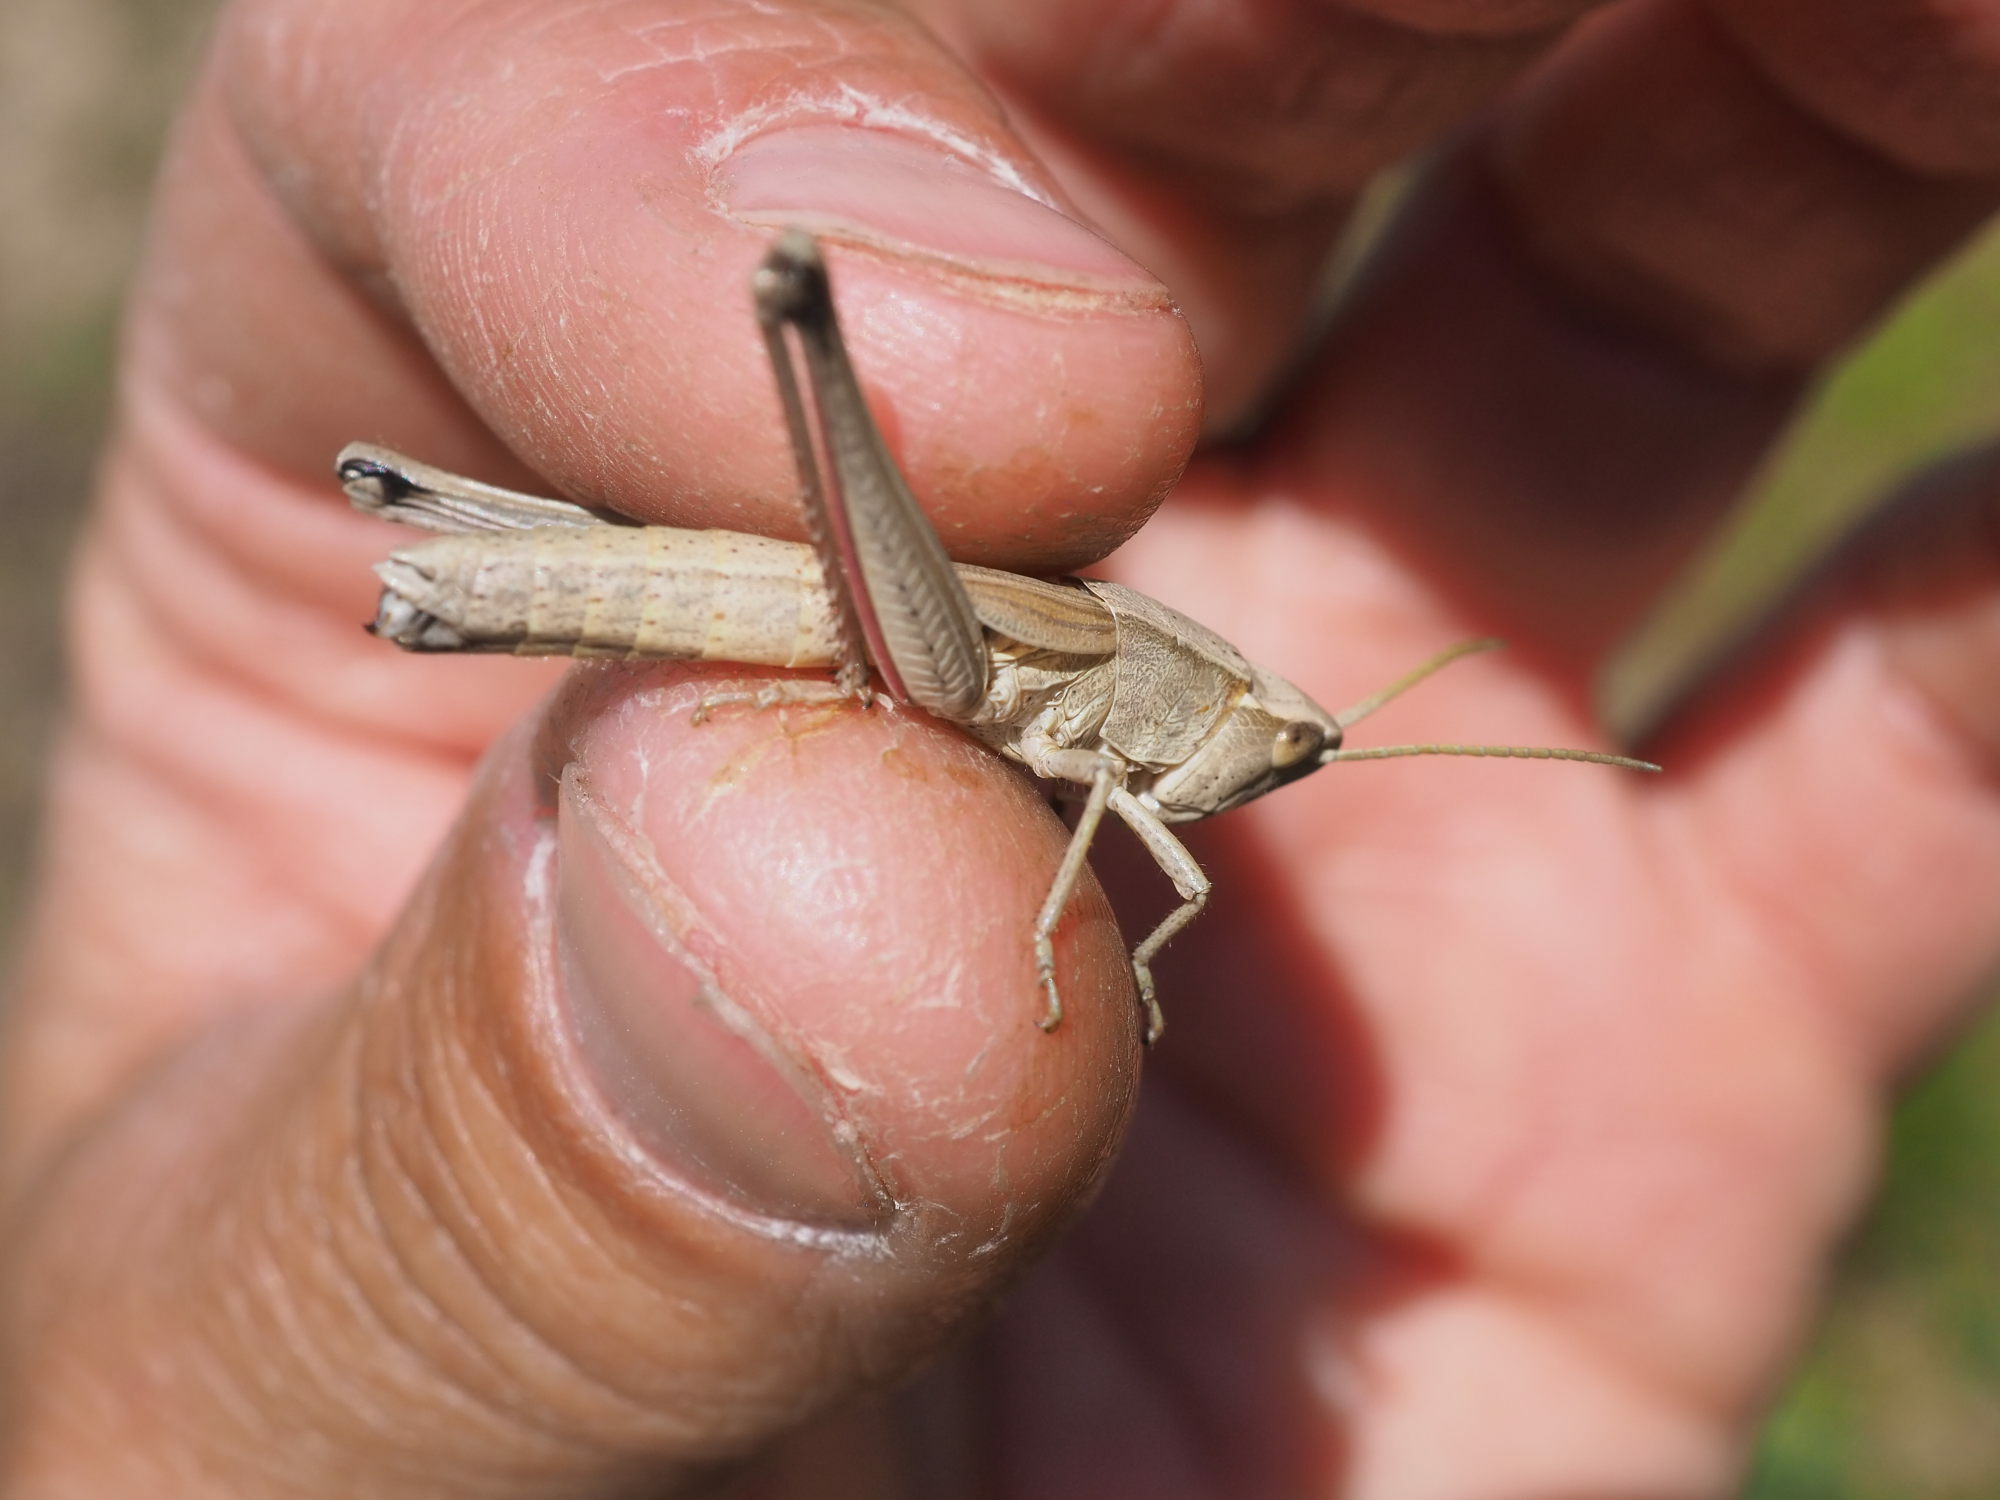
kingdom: Animalia
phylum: Arthropoda
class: Insecta
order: Orthoptera
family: Acrididae
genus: Chrysochraon
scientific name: Chrysochraon dispar
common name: Large gold grasshopper
